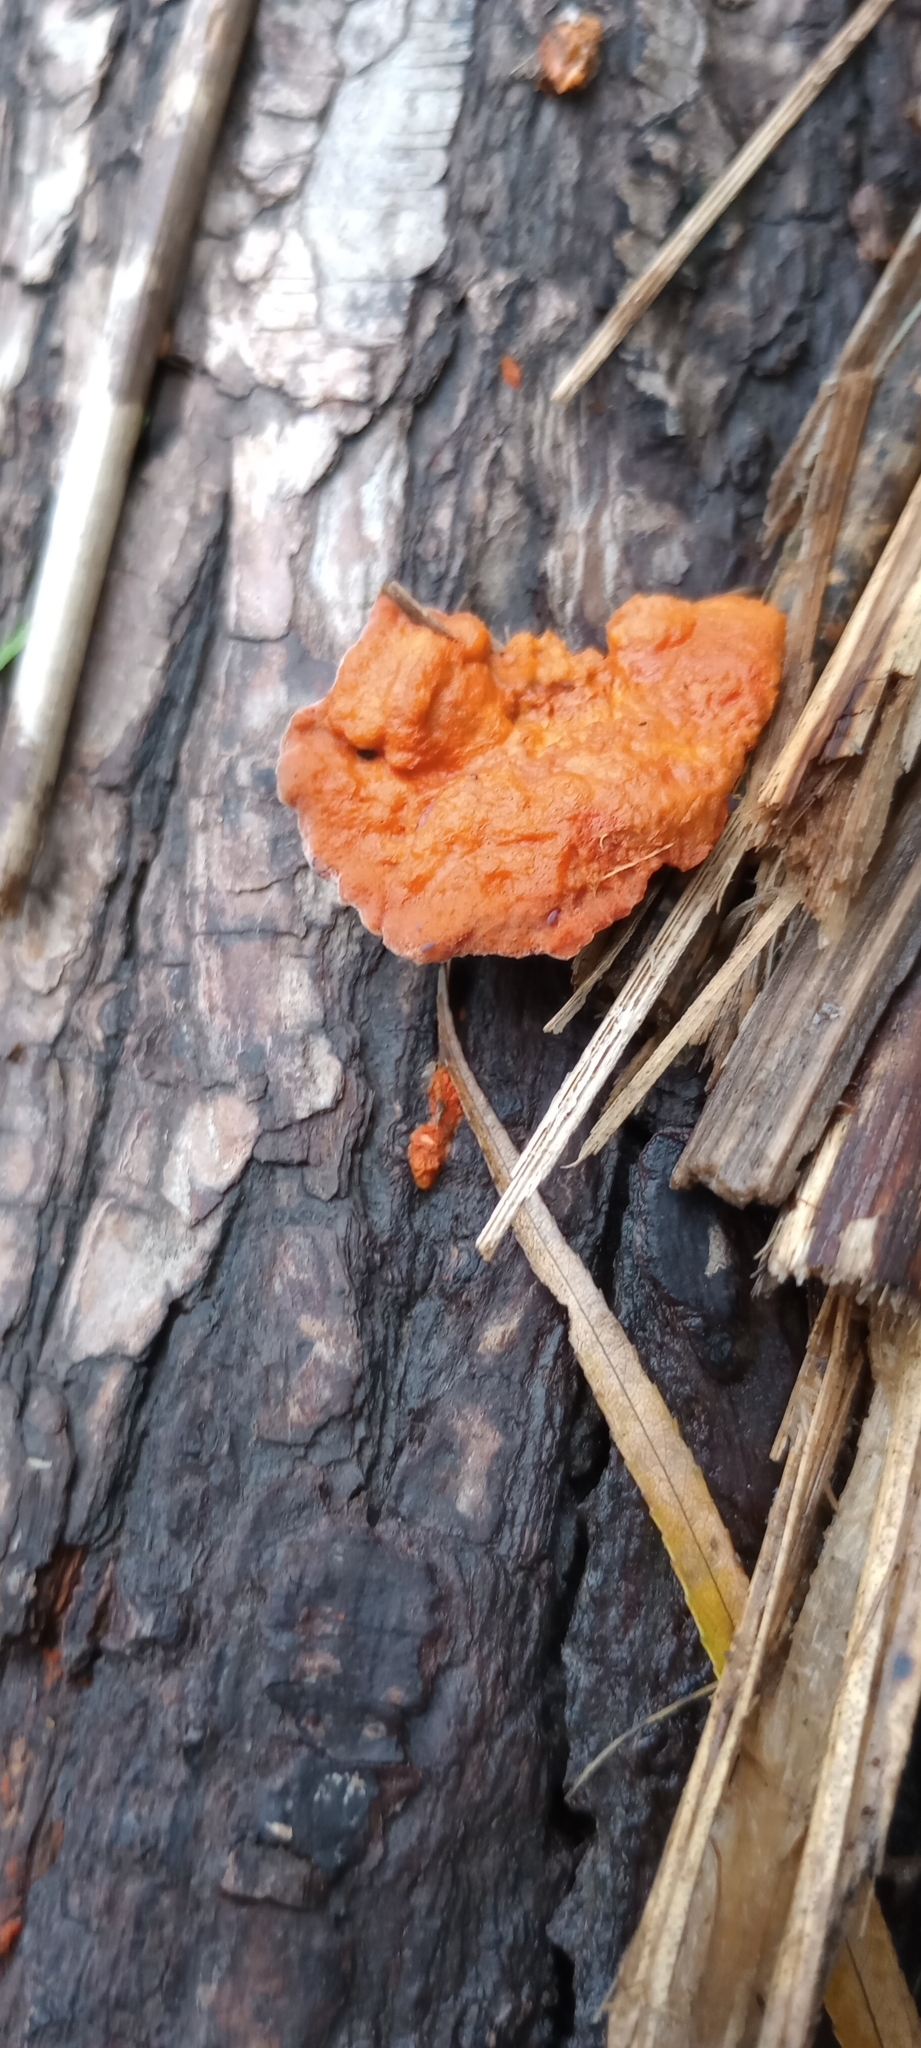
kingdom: Fungi
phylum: Basidiomycota
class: Agaricomycetes
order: Polyporales
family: Polyporaceae
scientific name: Polyporaceae
